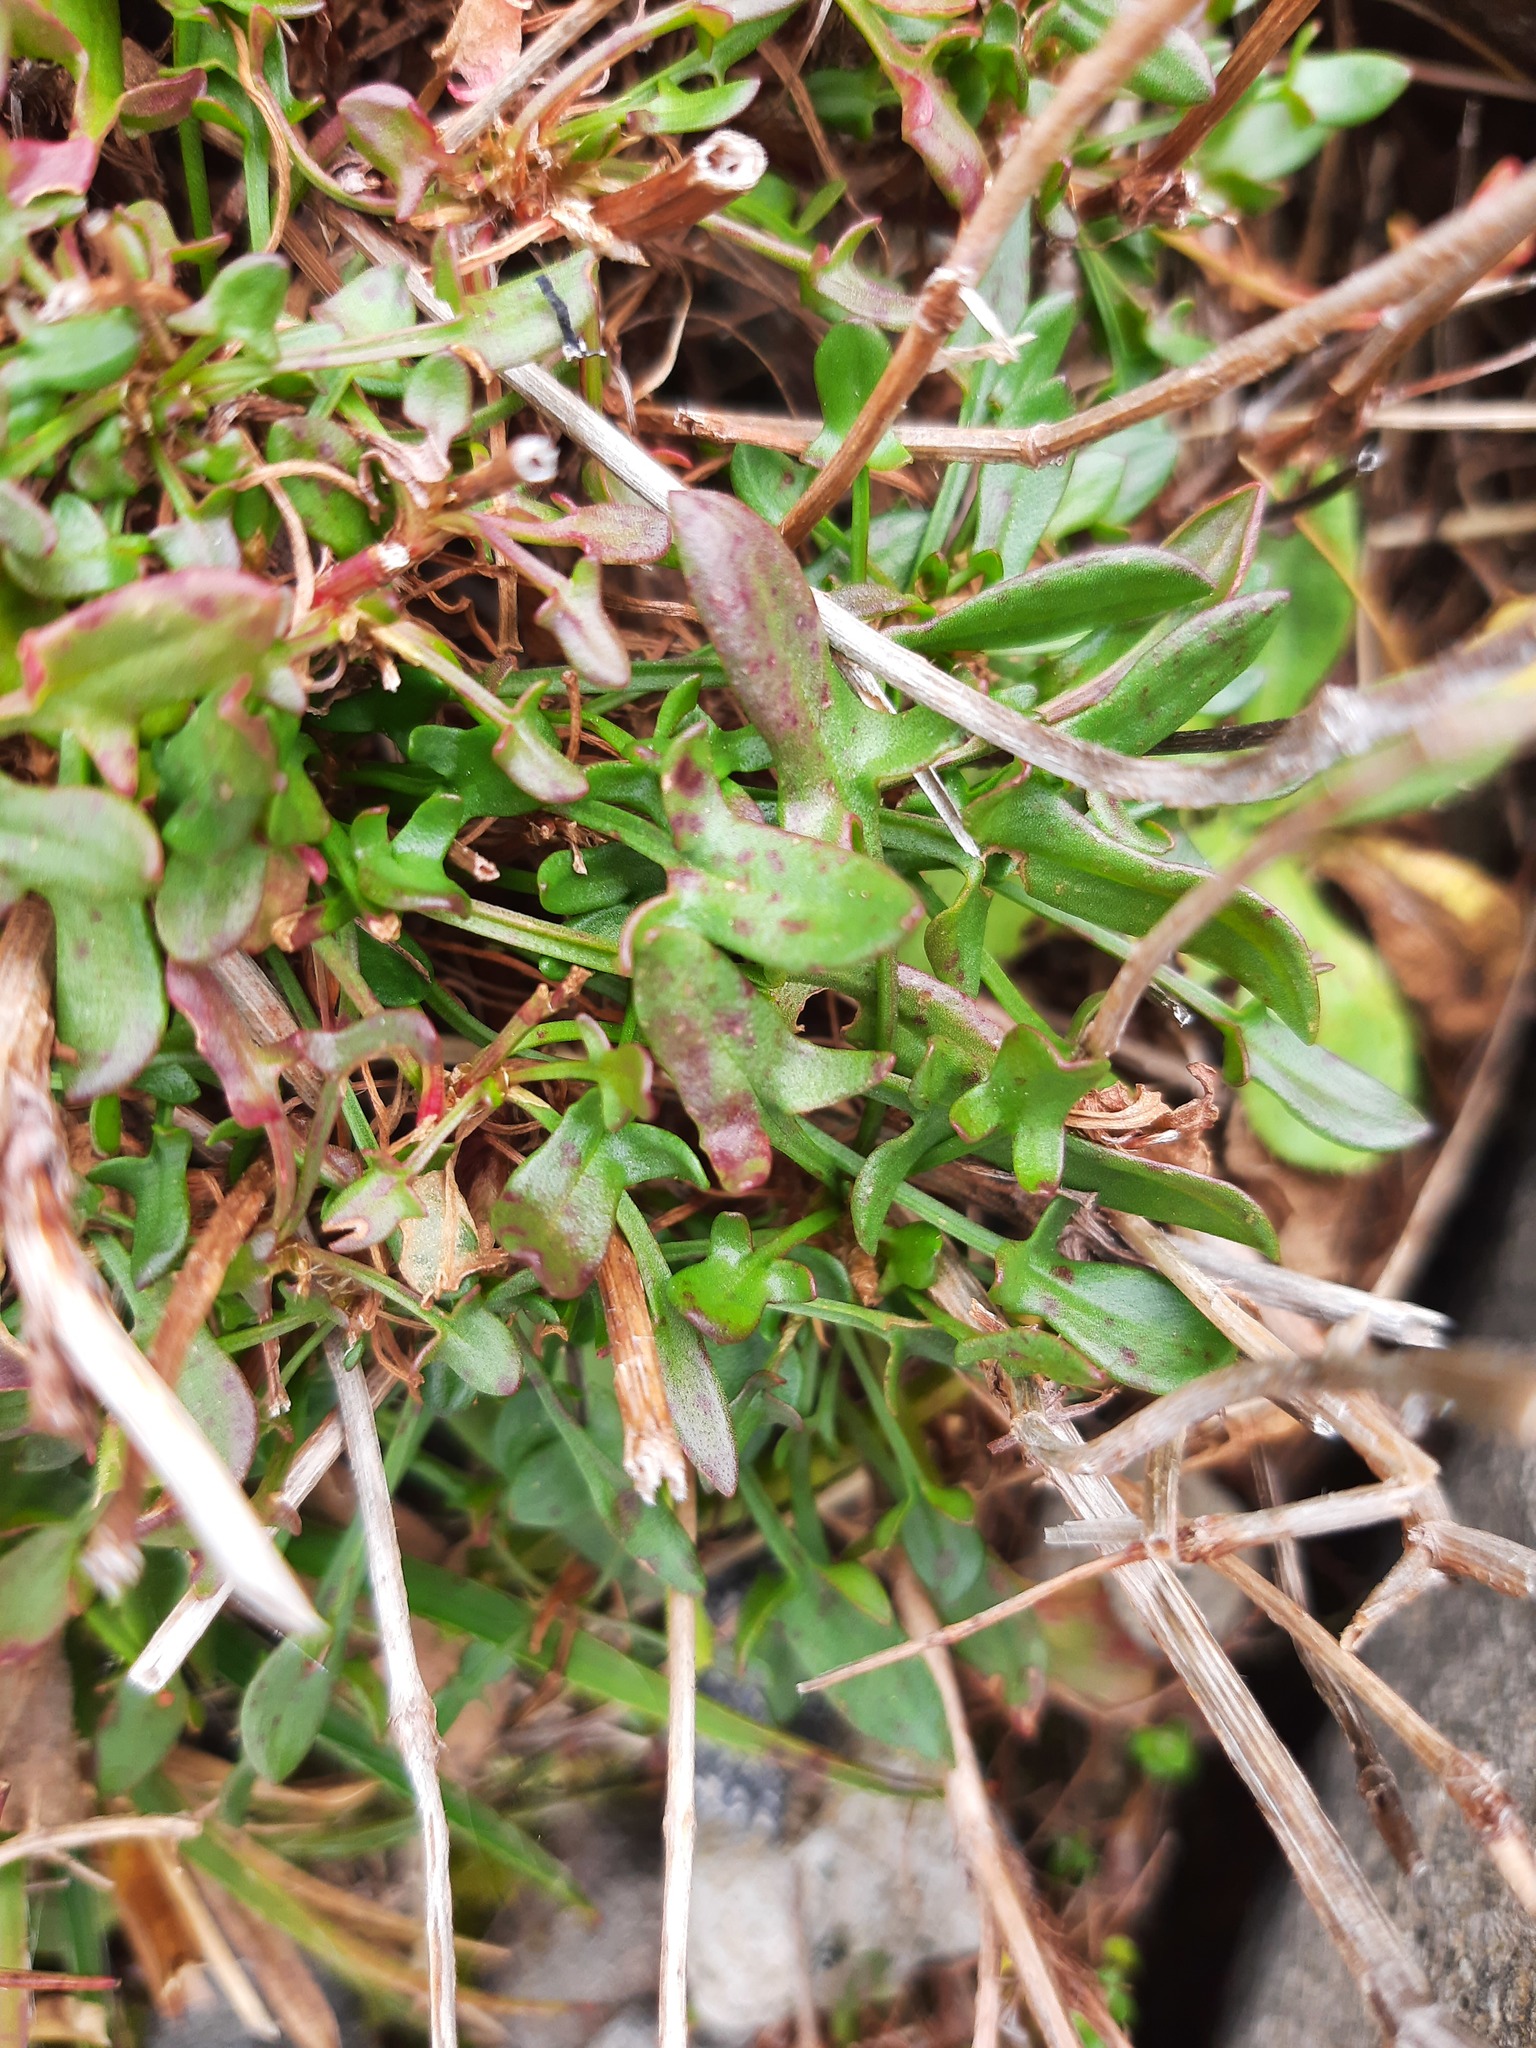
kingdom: Plantae
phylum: Tracheophyta
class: Magnoliopsida
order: Caryophyllales
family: Polygonaceae
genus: Rumex
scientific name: Rumex acetosella
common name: Common sheep sorrel
